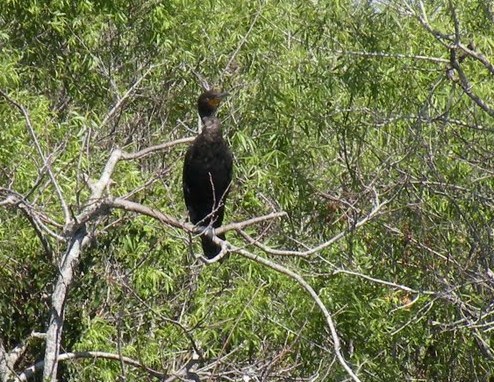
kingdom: Animalia
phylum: Chordata
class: Aves
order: Suliformes
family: Phalacrocoracidae
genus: Phalacrocorax
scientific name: Phalacrocorax auritus
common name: Double-crested cormorant
